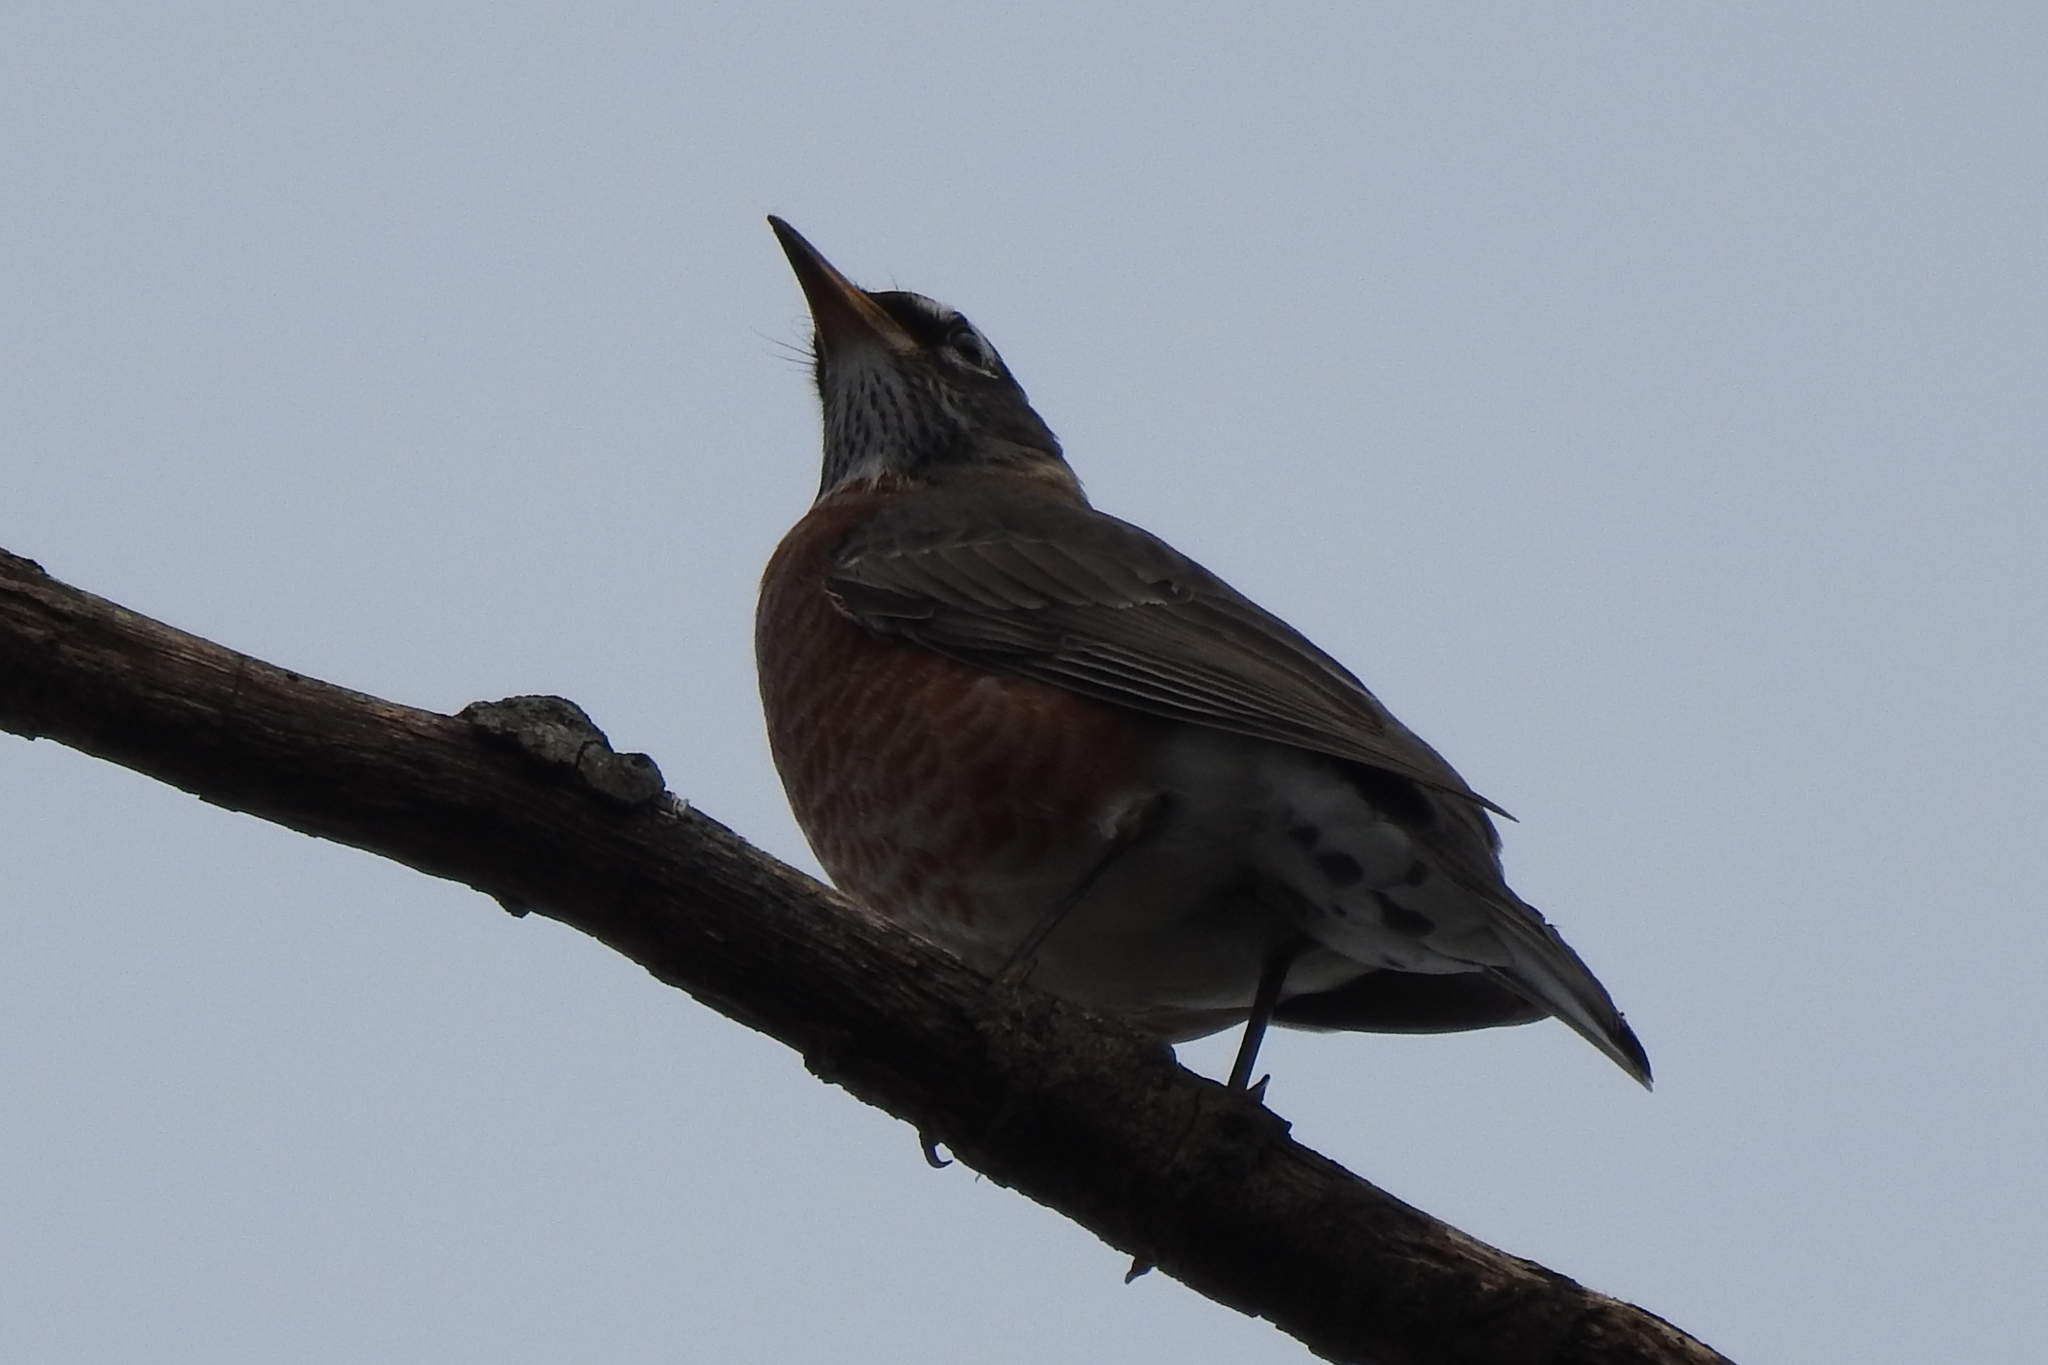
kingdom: Animalia
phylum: Chordata
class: Aves
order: Passeriformes
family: Turdidae
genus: Turdus
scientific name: Turdus migratorius
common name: American robin
